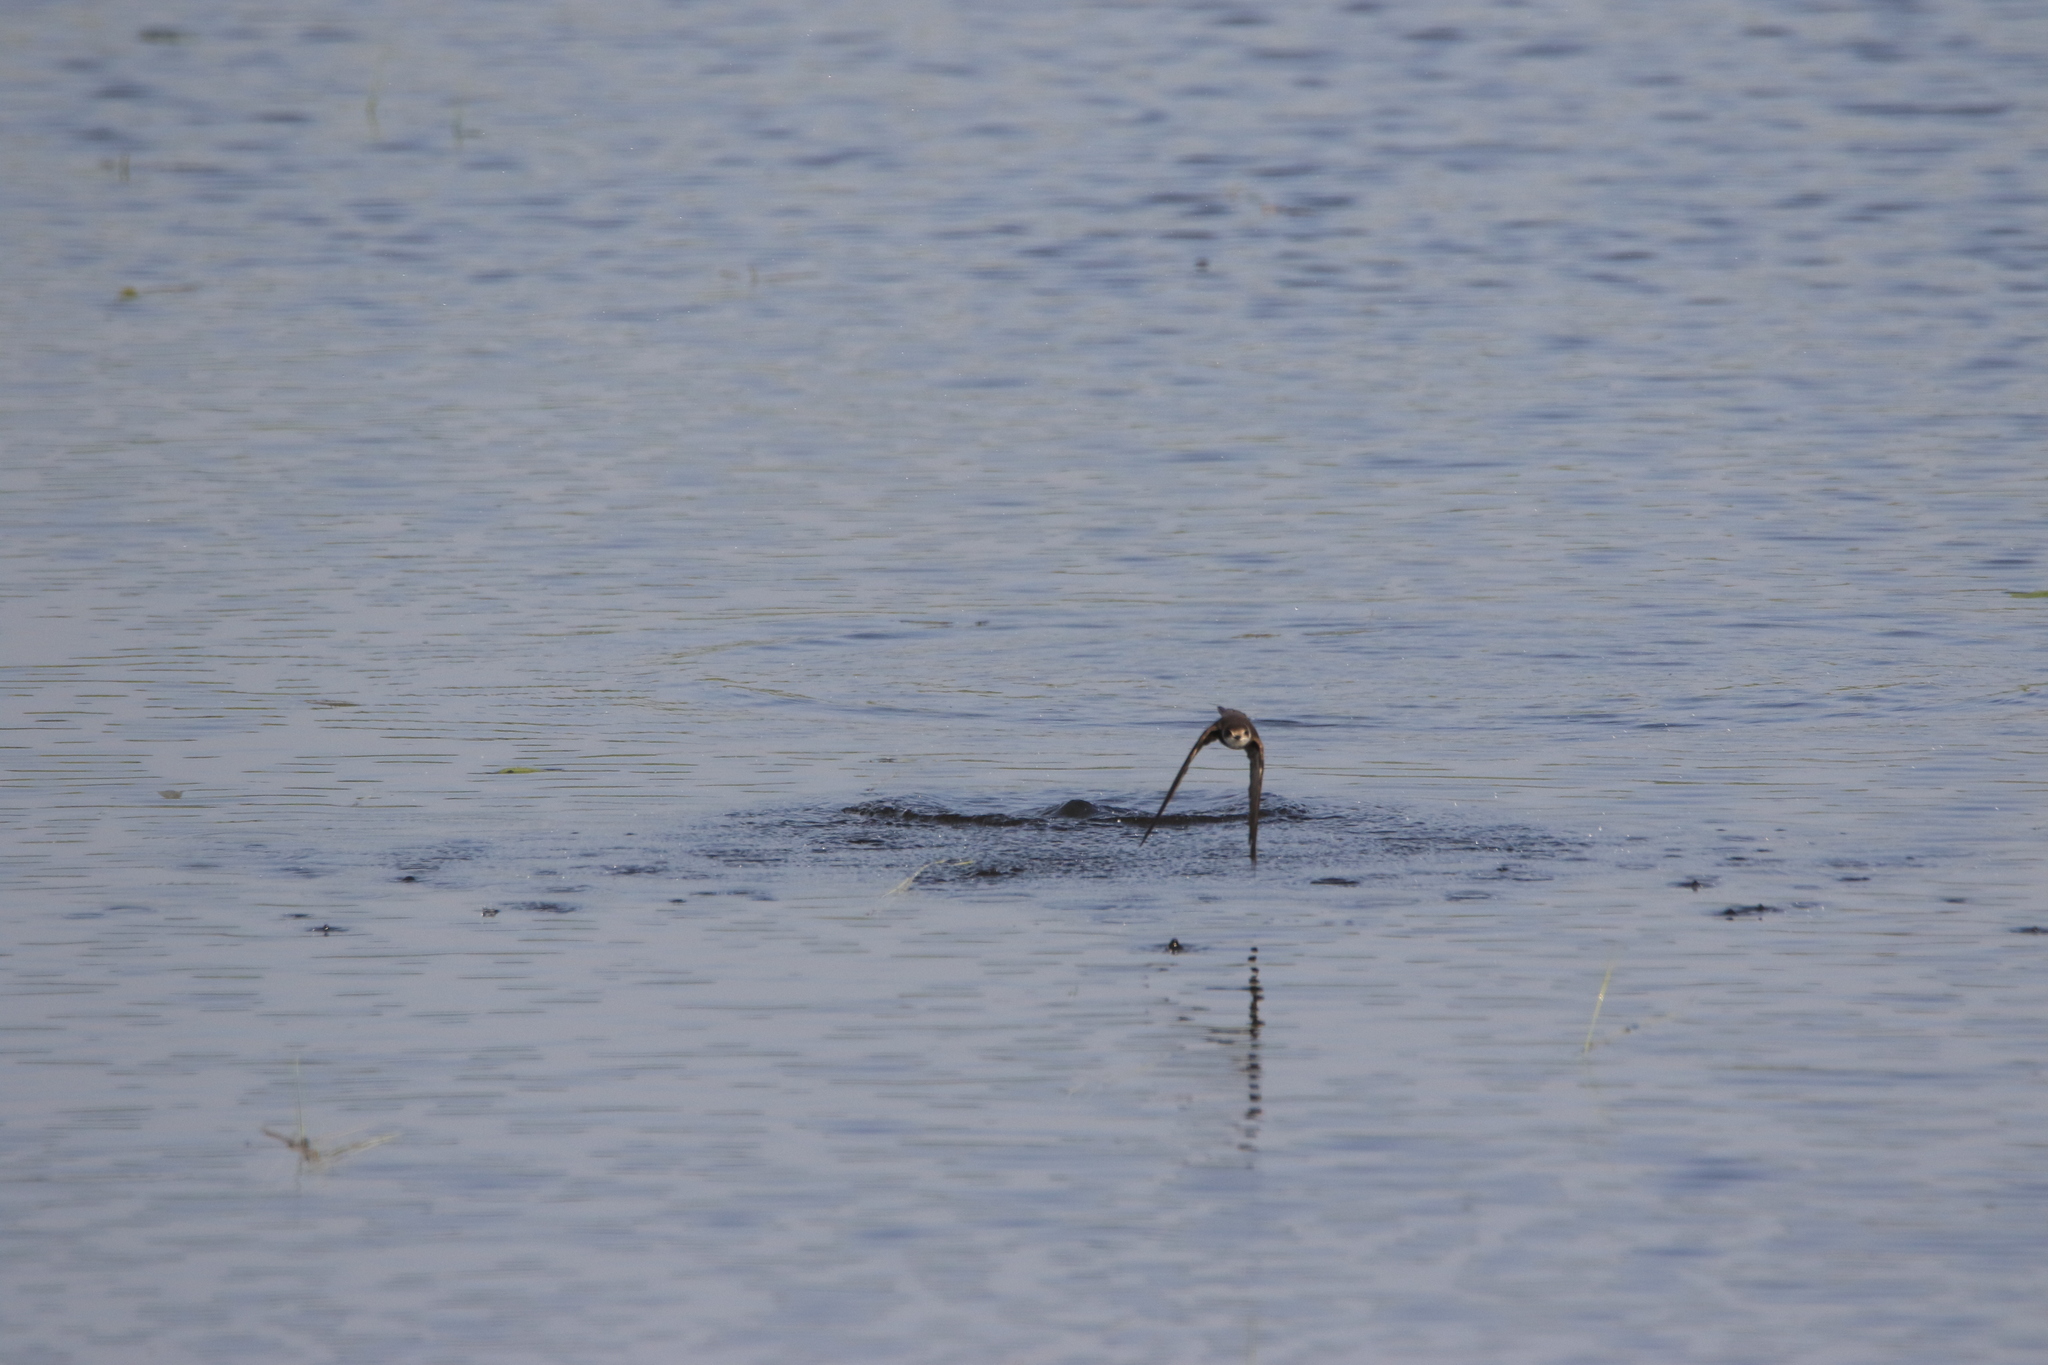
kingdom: Animalia
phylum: Chordata
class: Aves
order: Passeriformes
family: Hirundinidae
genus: Riparia
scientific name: Riparia riparia
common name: Sand martin
